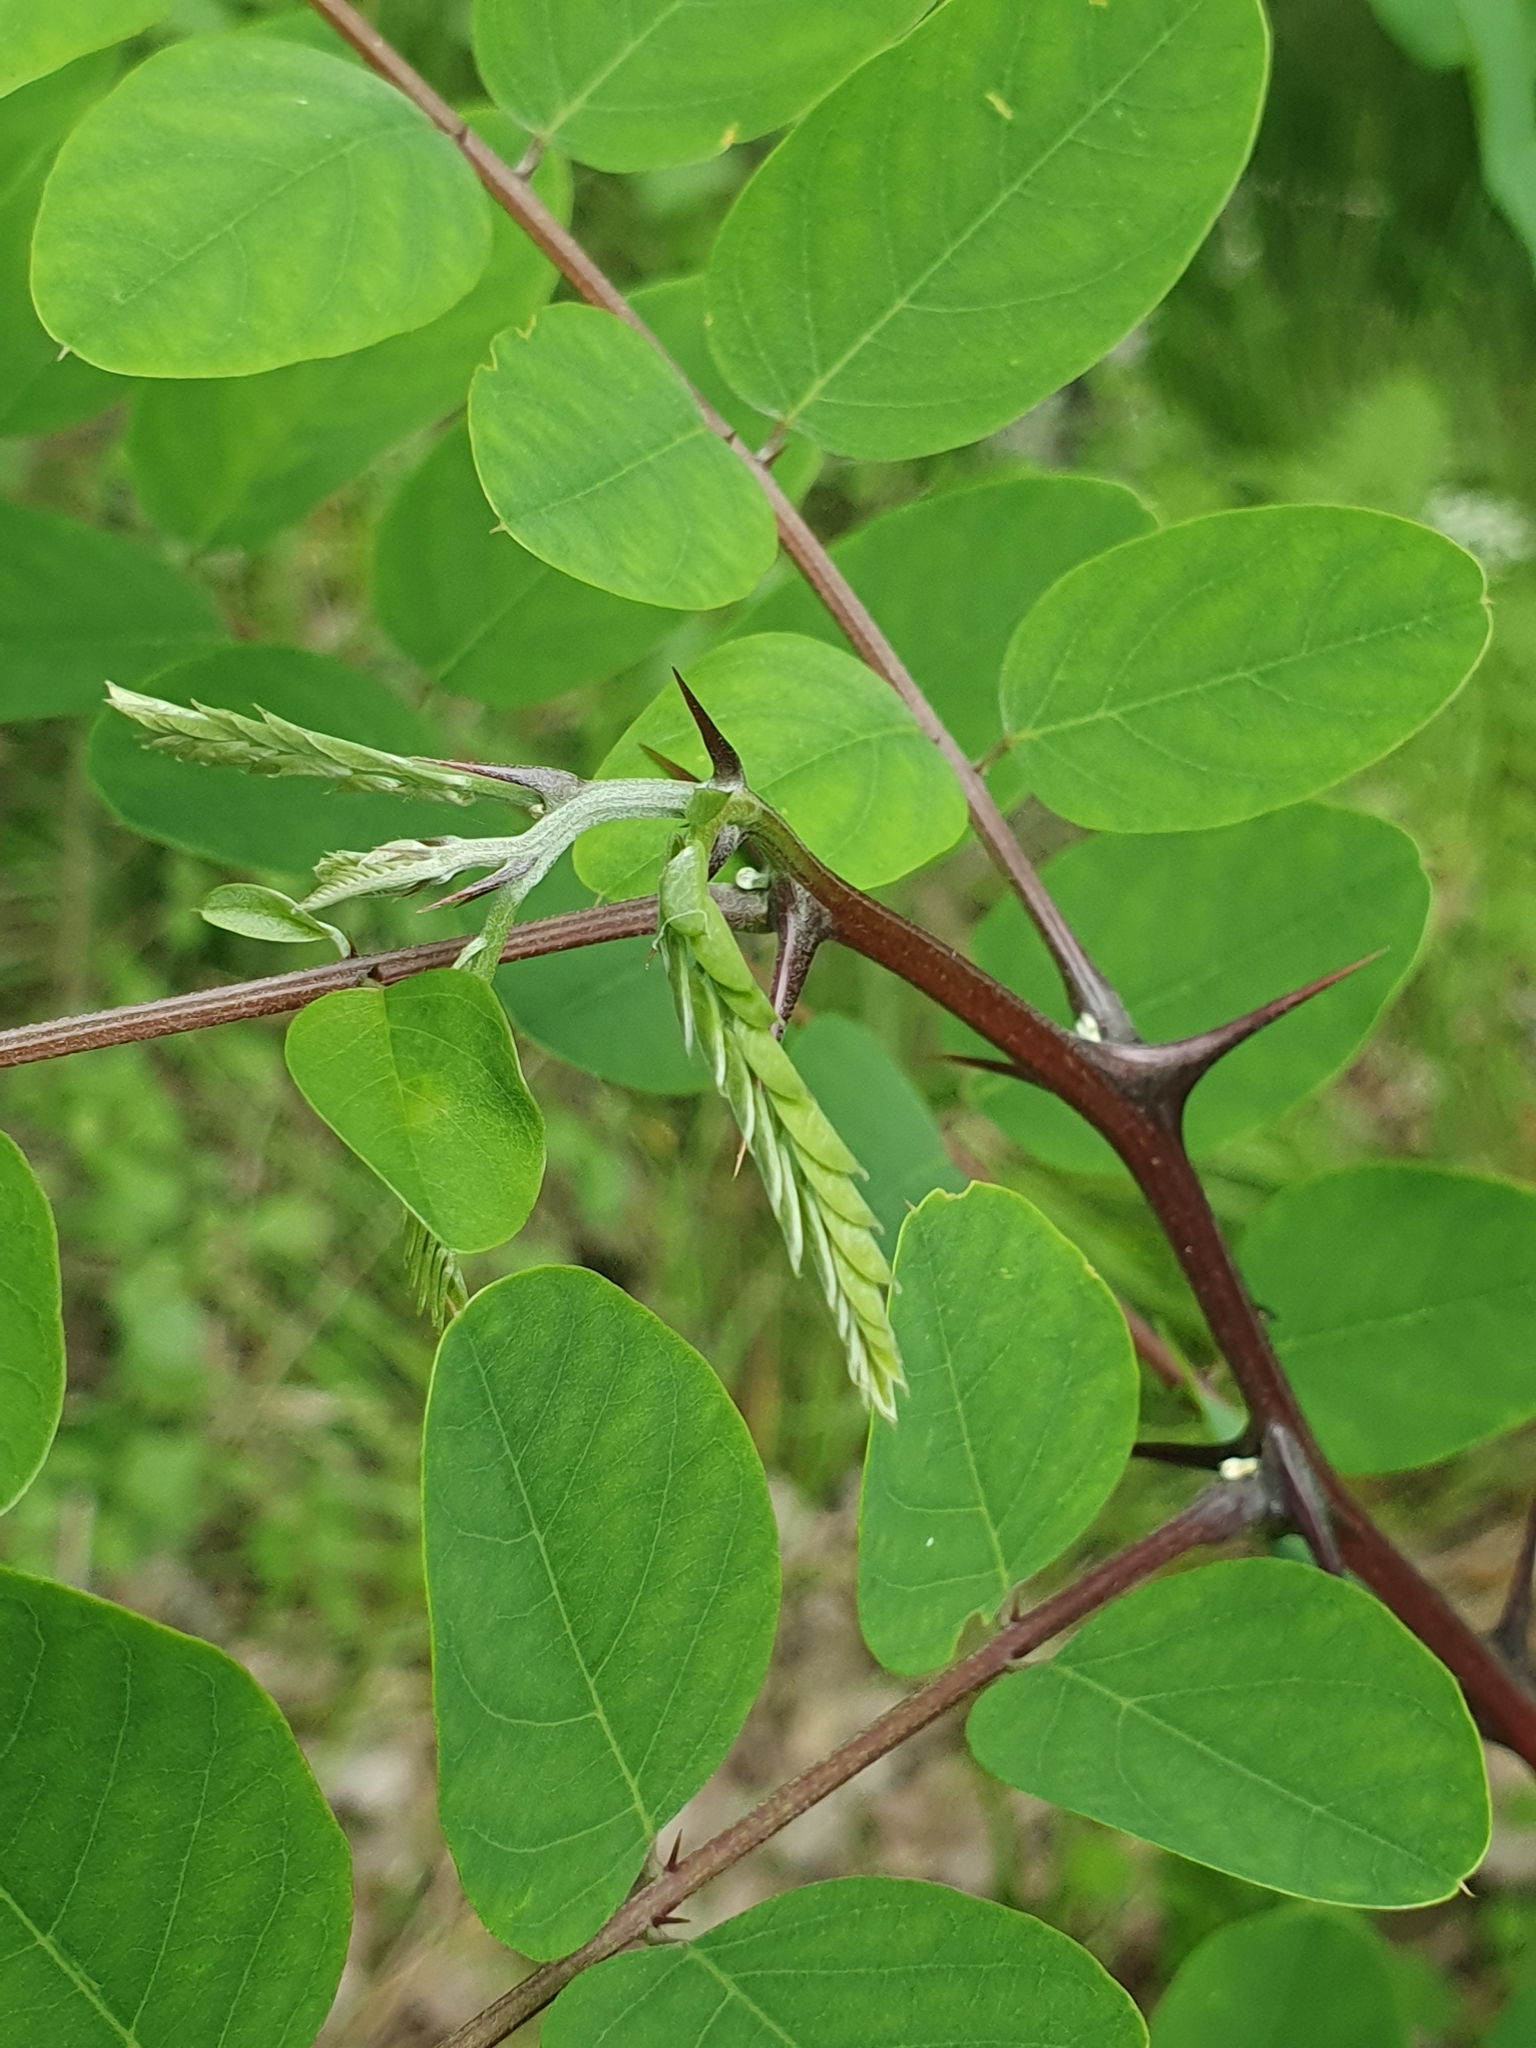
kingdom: Plantae
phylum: Tracheophyta
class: Magnoliopsida
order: Fabales
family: Fabaceae
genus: Robinia
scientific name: Robinia pseudoacacia
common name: Black locust
